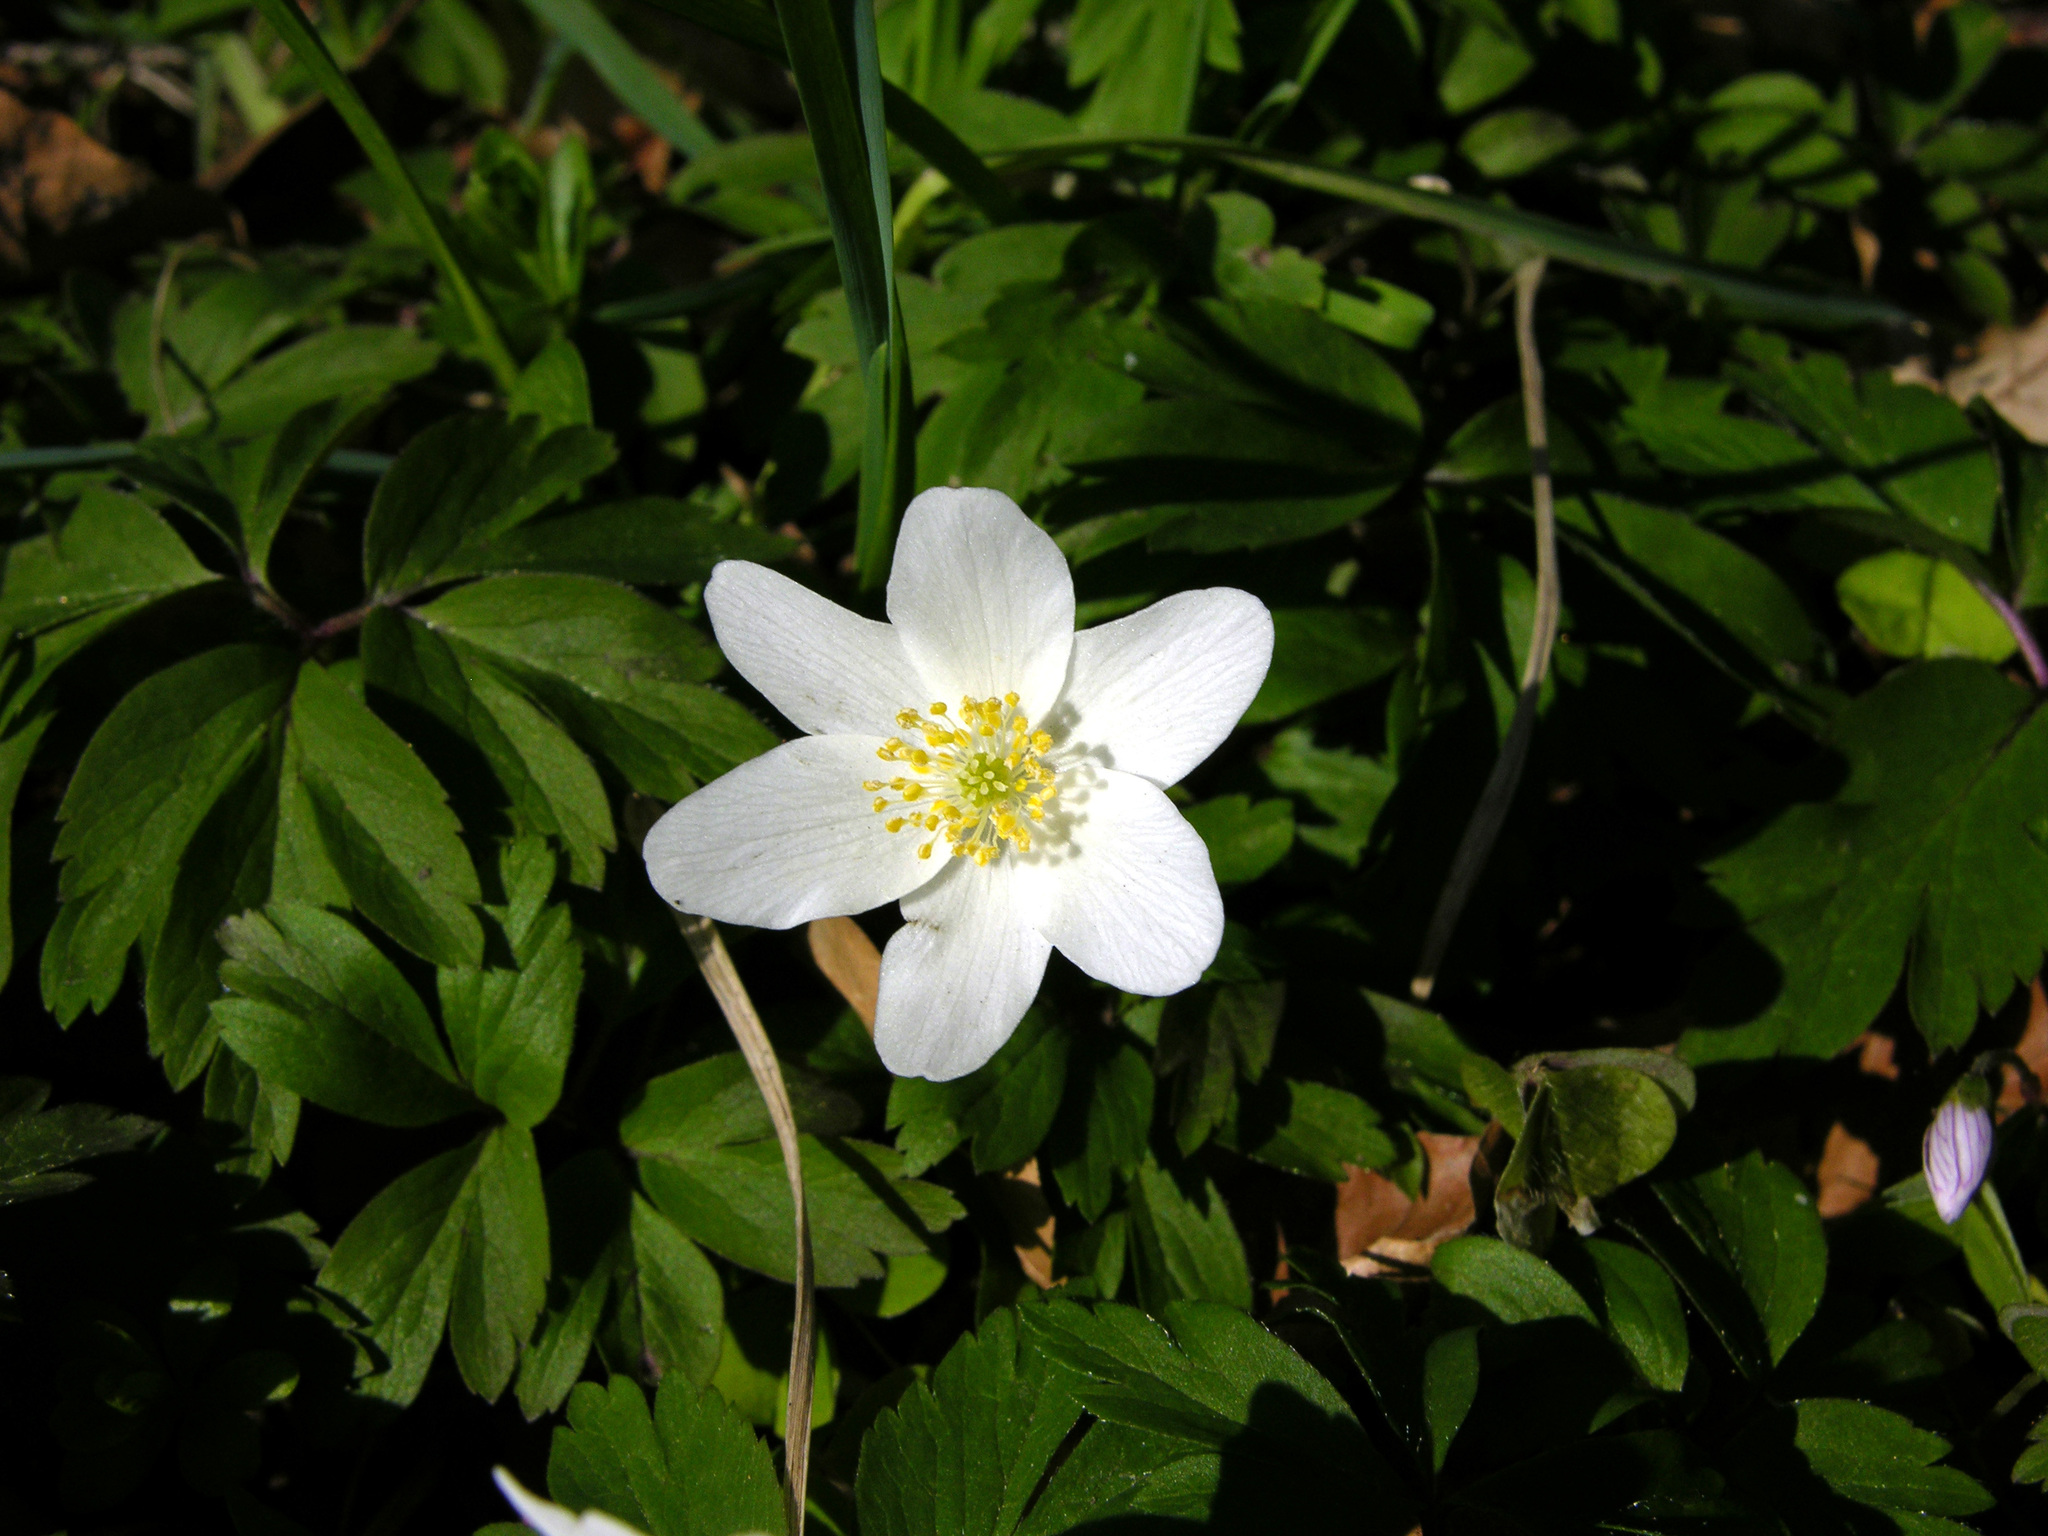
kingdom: Plantae
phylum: Tracheophyta
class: Magnoliopsida
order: Ranunculales
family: Ranunculaceae
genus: Anemone
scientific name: Anemone nemorosa
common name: Wood anemone
